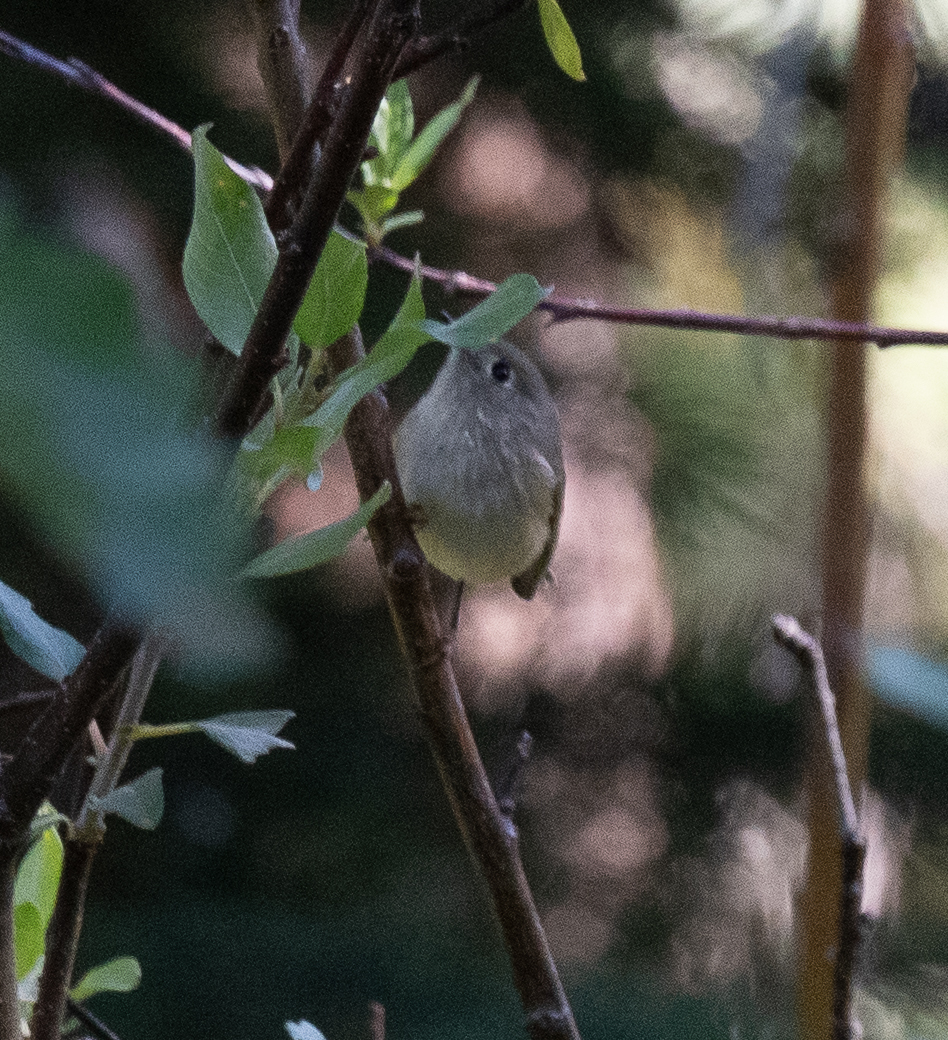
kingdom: Animalia
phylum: Chordata
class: Aves
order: Passeriformes
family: Regulidae
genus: Regulus
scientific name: Regulus calendula
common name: Ruby-crowned kinglet
